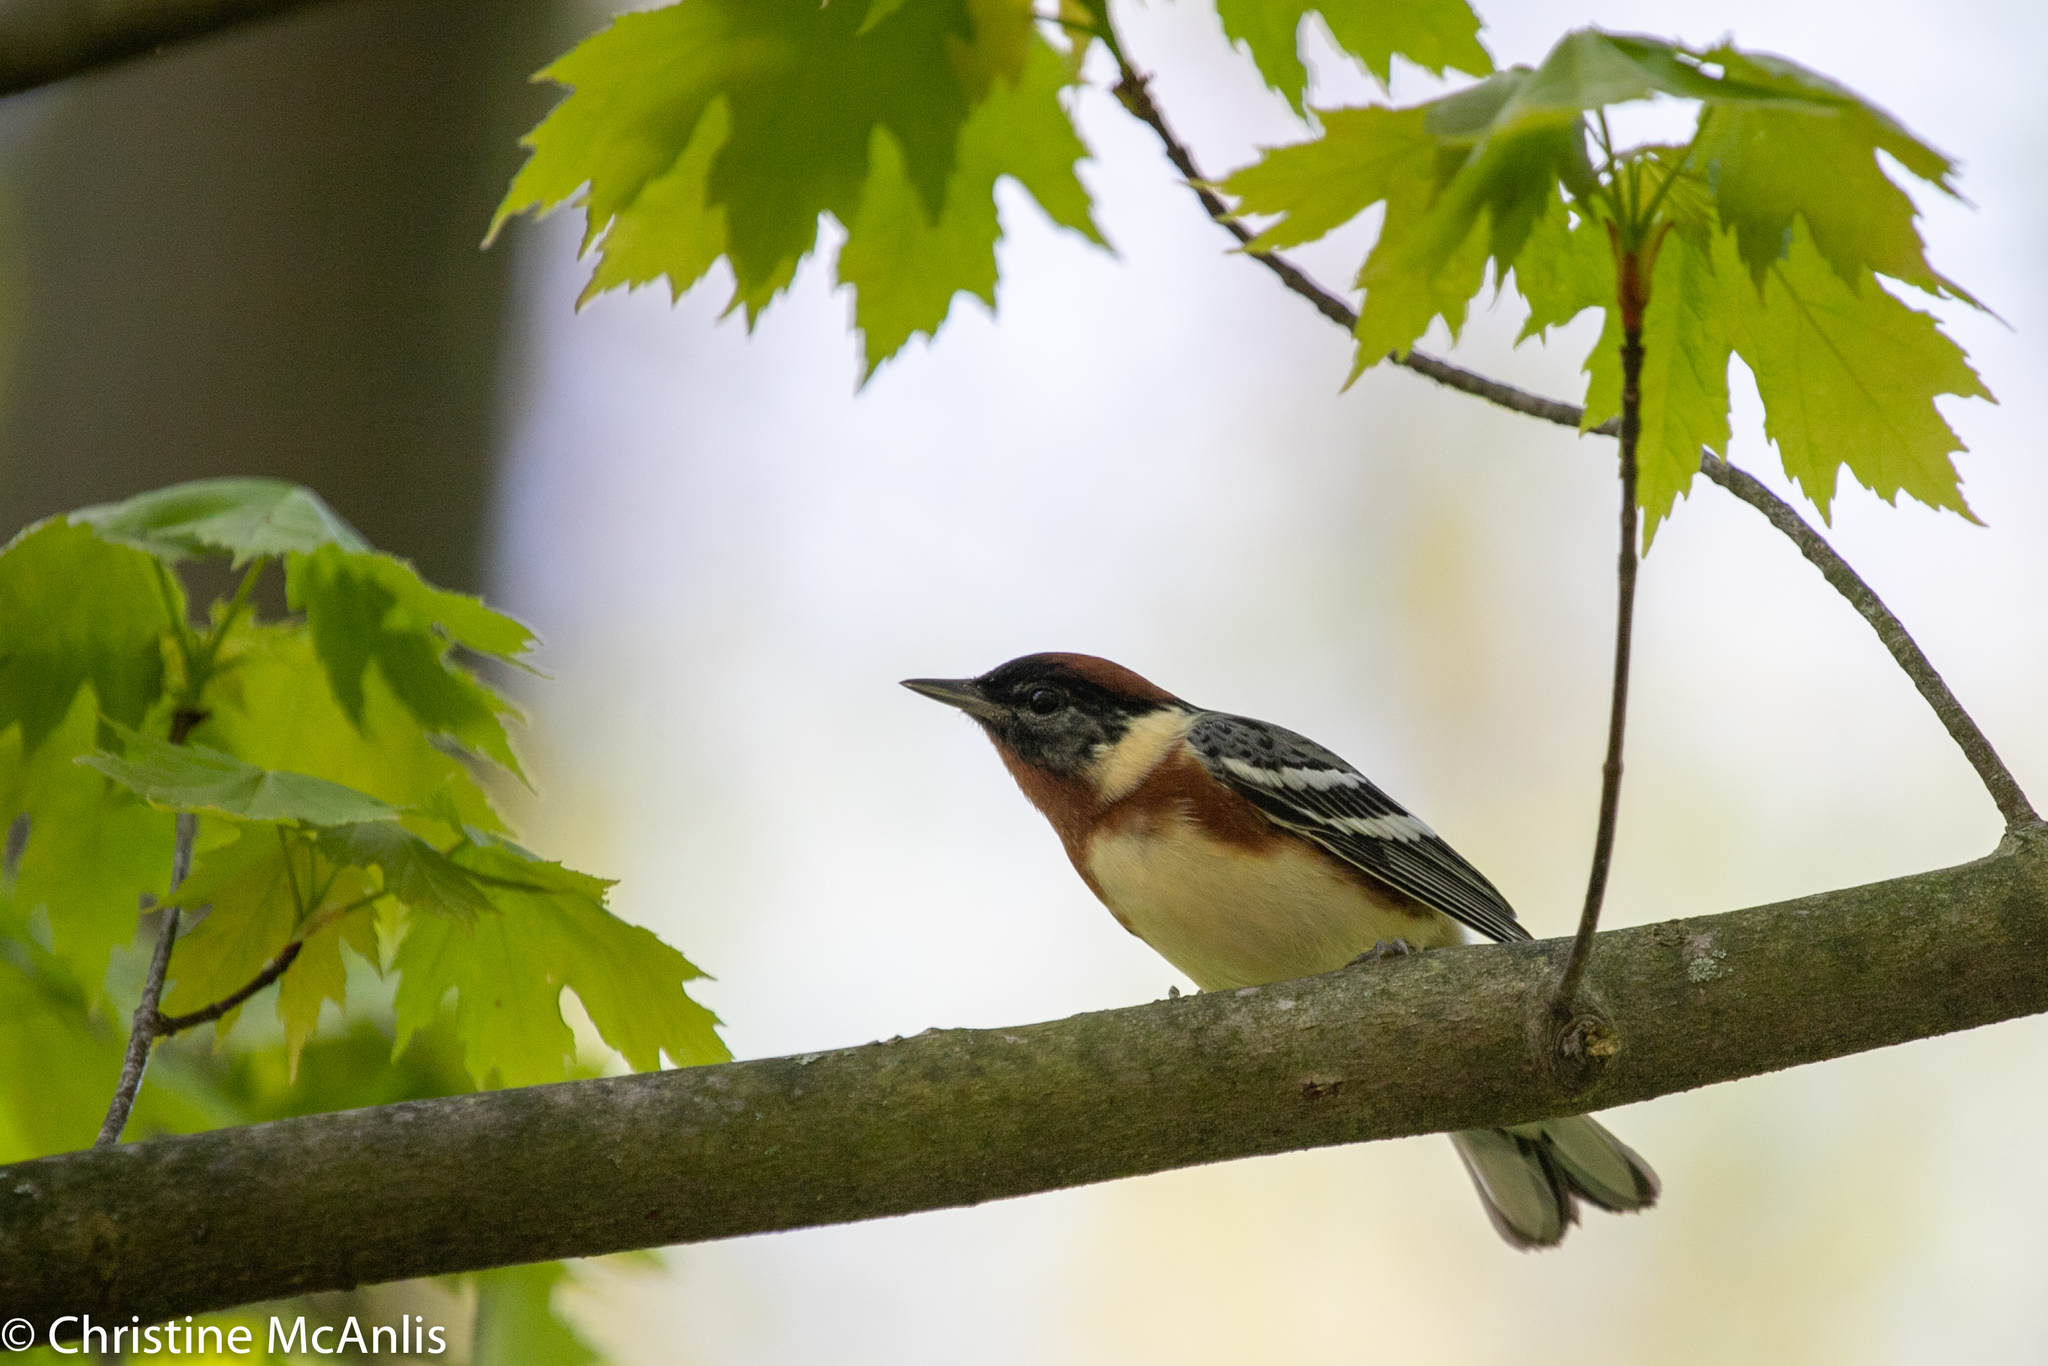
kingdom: Animalia
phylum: Chordata
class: Aves
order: Passeriformes
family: Parulidae
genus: Setophaga
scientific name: Setophaga castanea
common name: Bay-breasted warbler
